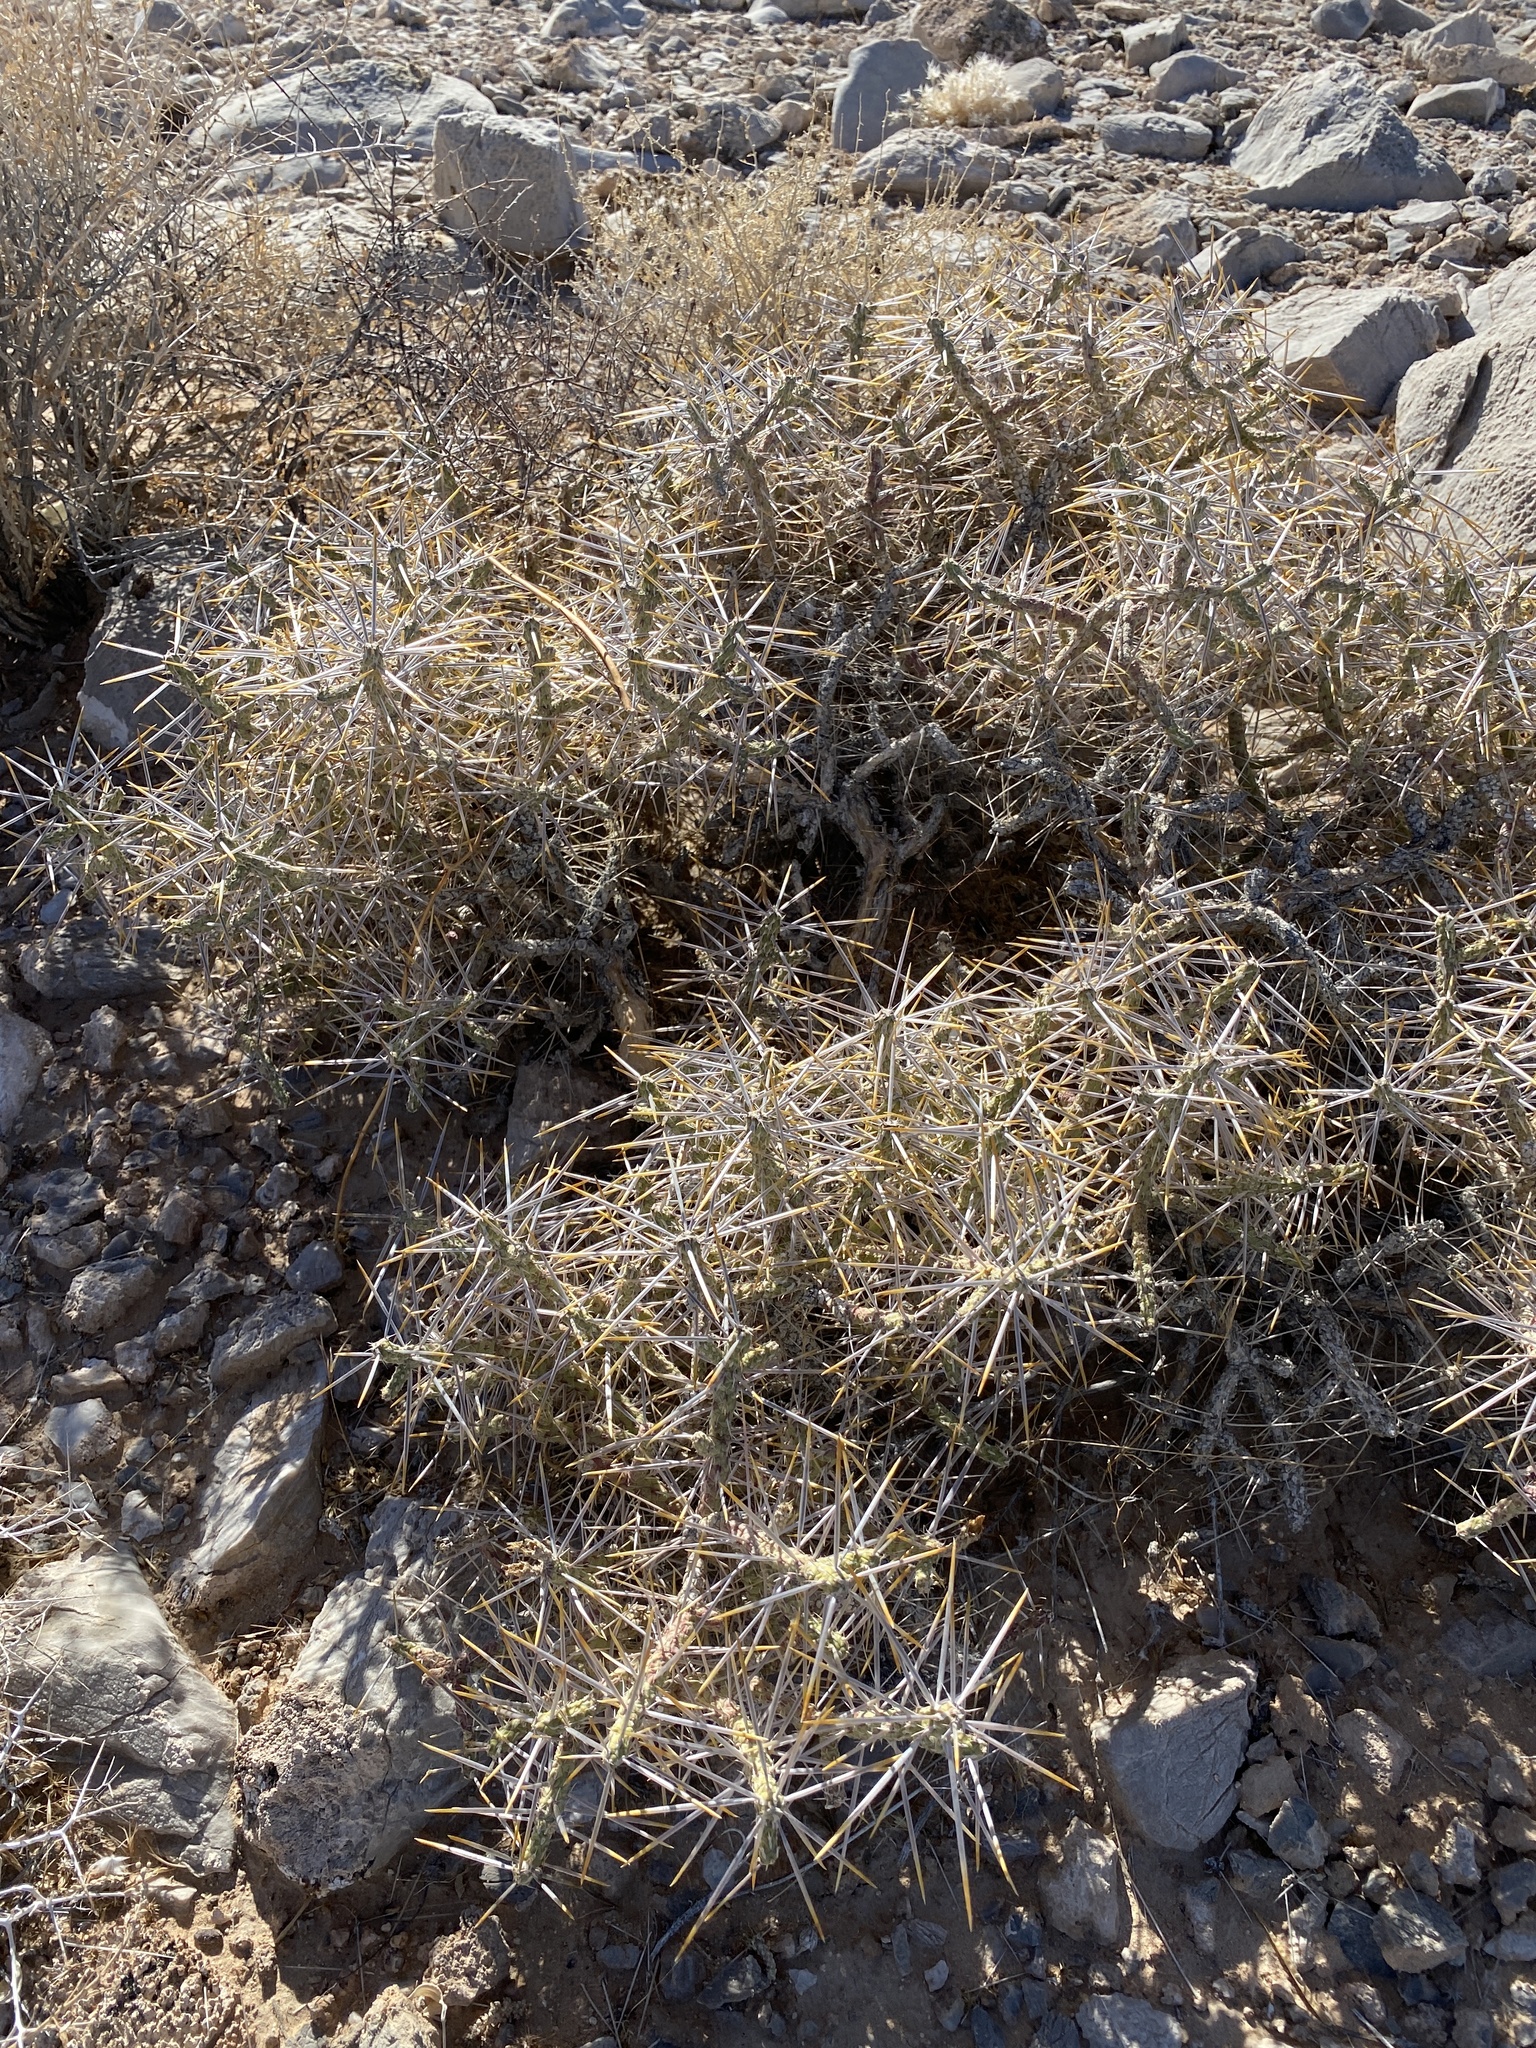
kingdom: Plantae
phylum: Tracheophyta
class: Magnoliopsida
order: Caryophyllales
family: Cactaceae
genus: Cylindropuntia
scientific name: Cylindropuntia ramosissima
